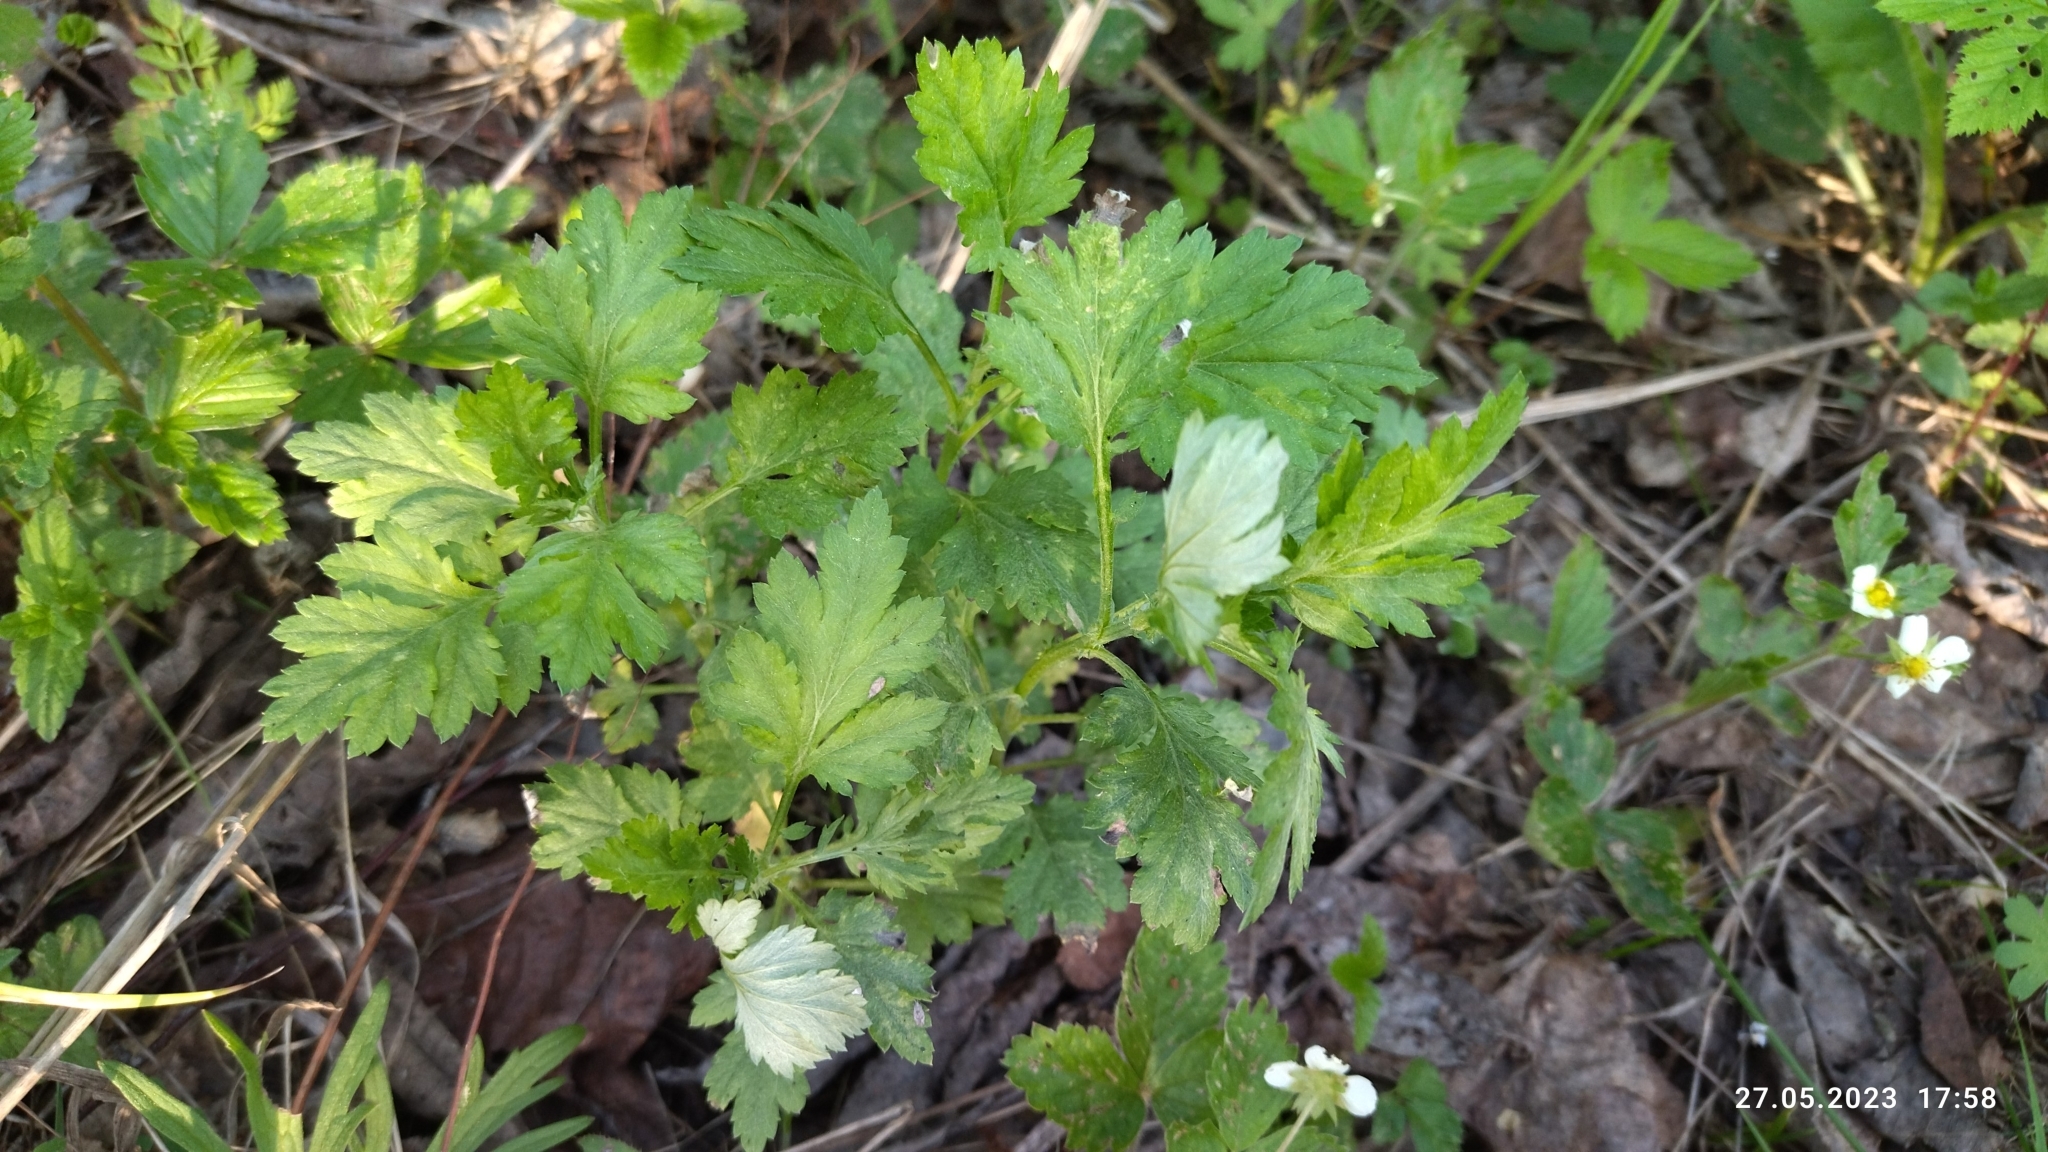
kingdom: Plantae
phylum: Tracheophyta
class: Magnoliopsida
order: Asterales
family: Asteraceae
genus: Artemisia
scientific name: Artemisia vulgaris
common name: Mugwort
